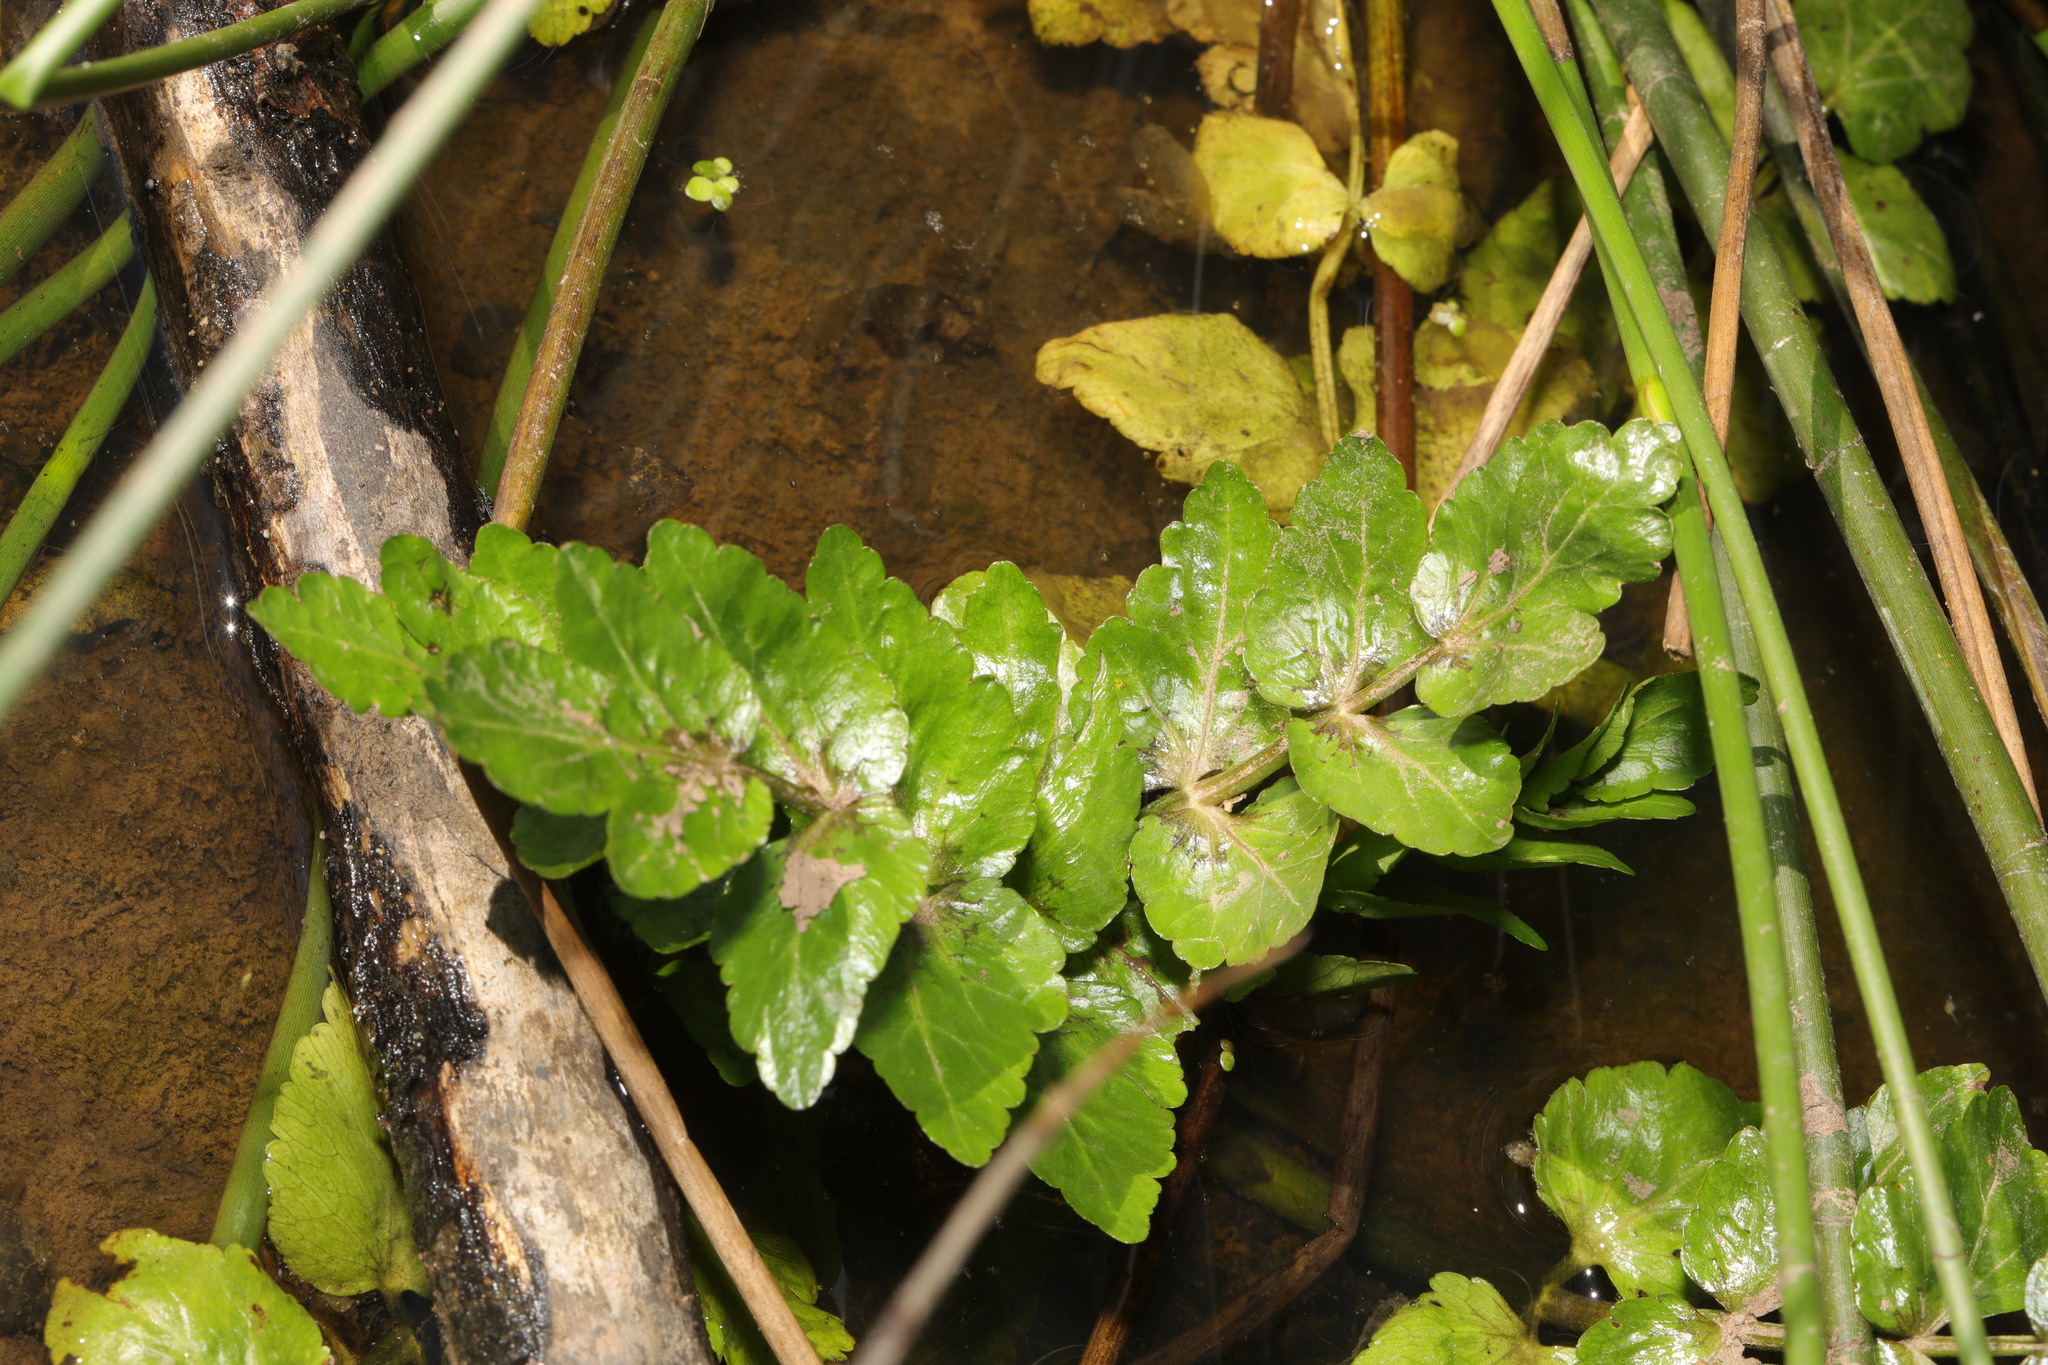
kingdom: Plantae
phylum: Tracheophyta
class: Magnoliopsida
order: Apiales
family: Apiaceae
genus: Helosciadium
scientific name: Helosciadium nodiflorum
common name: Fool's-watercress
